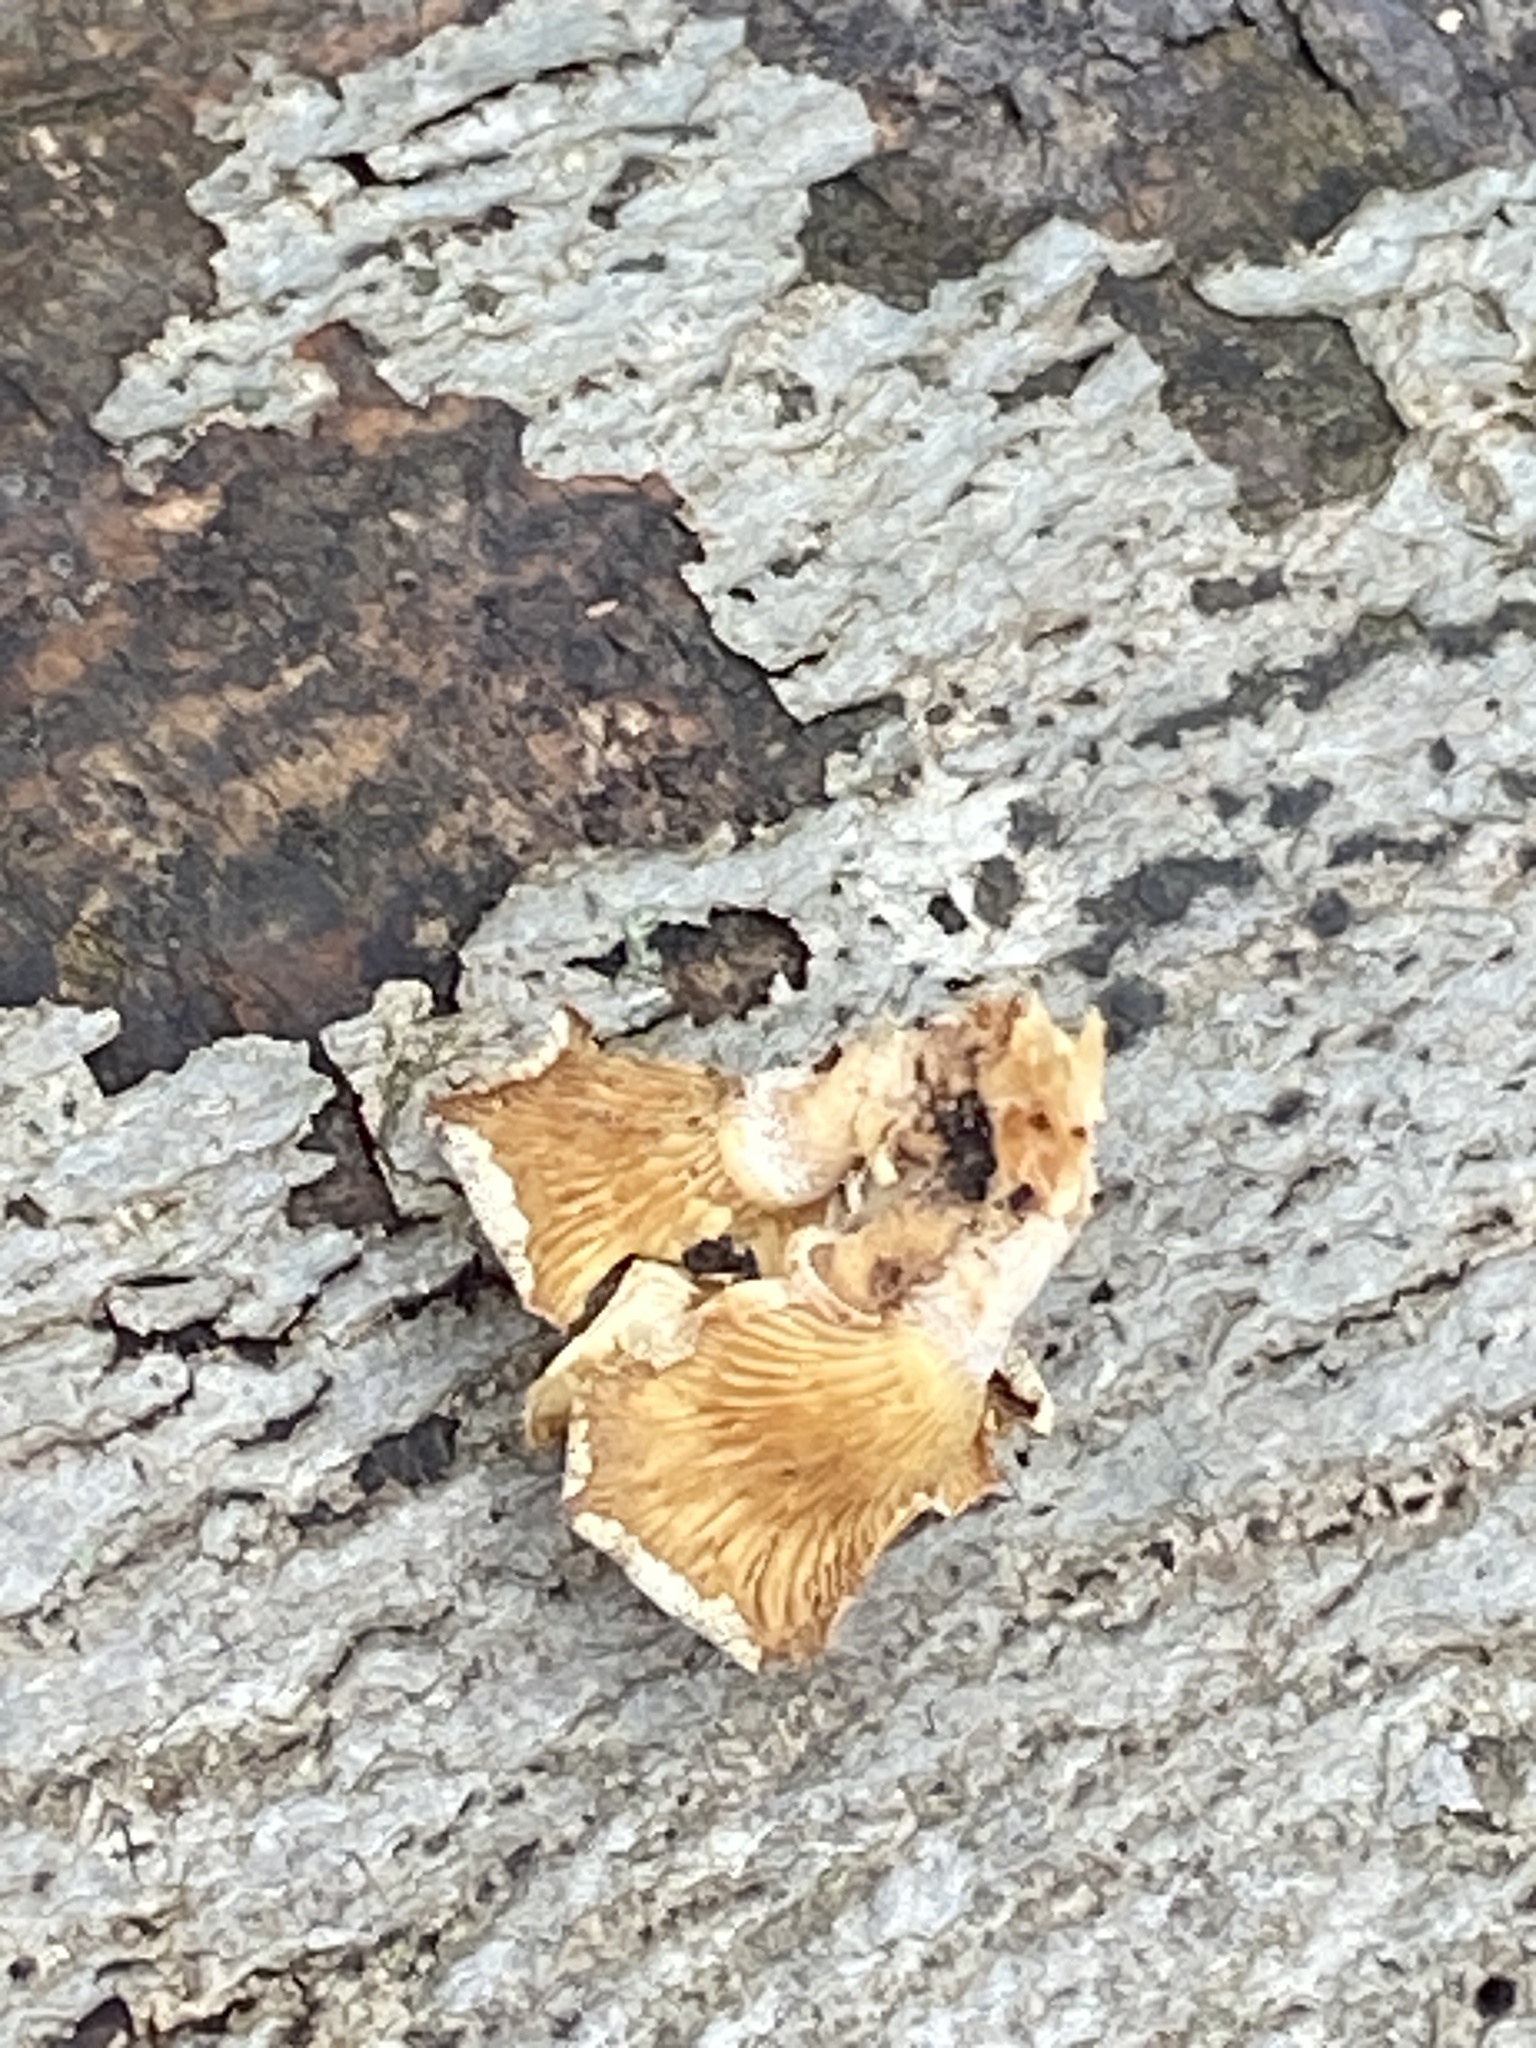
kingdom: Fungi
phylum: Basidiomycota
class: Agaricomycetes
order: Agaricales
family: Mycenaceae
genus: Panellus
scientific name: Panellus stipticus
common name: Bitter oysterling
